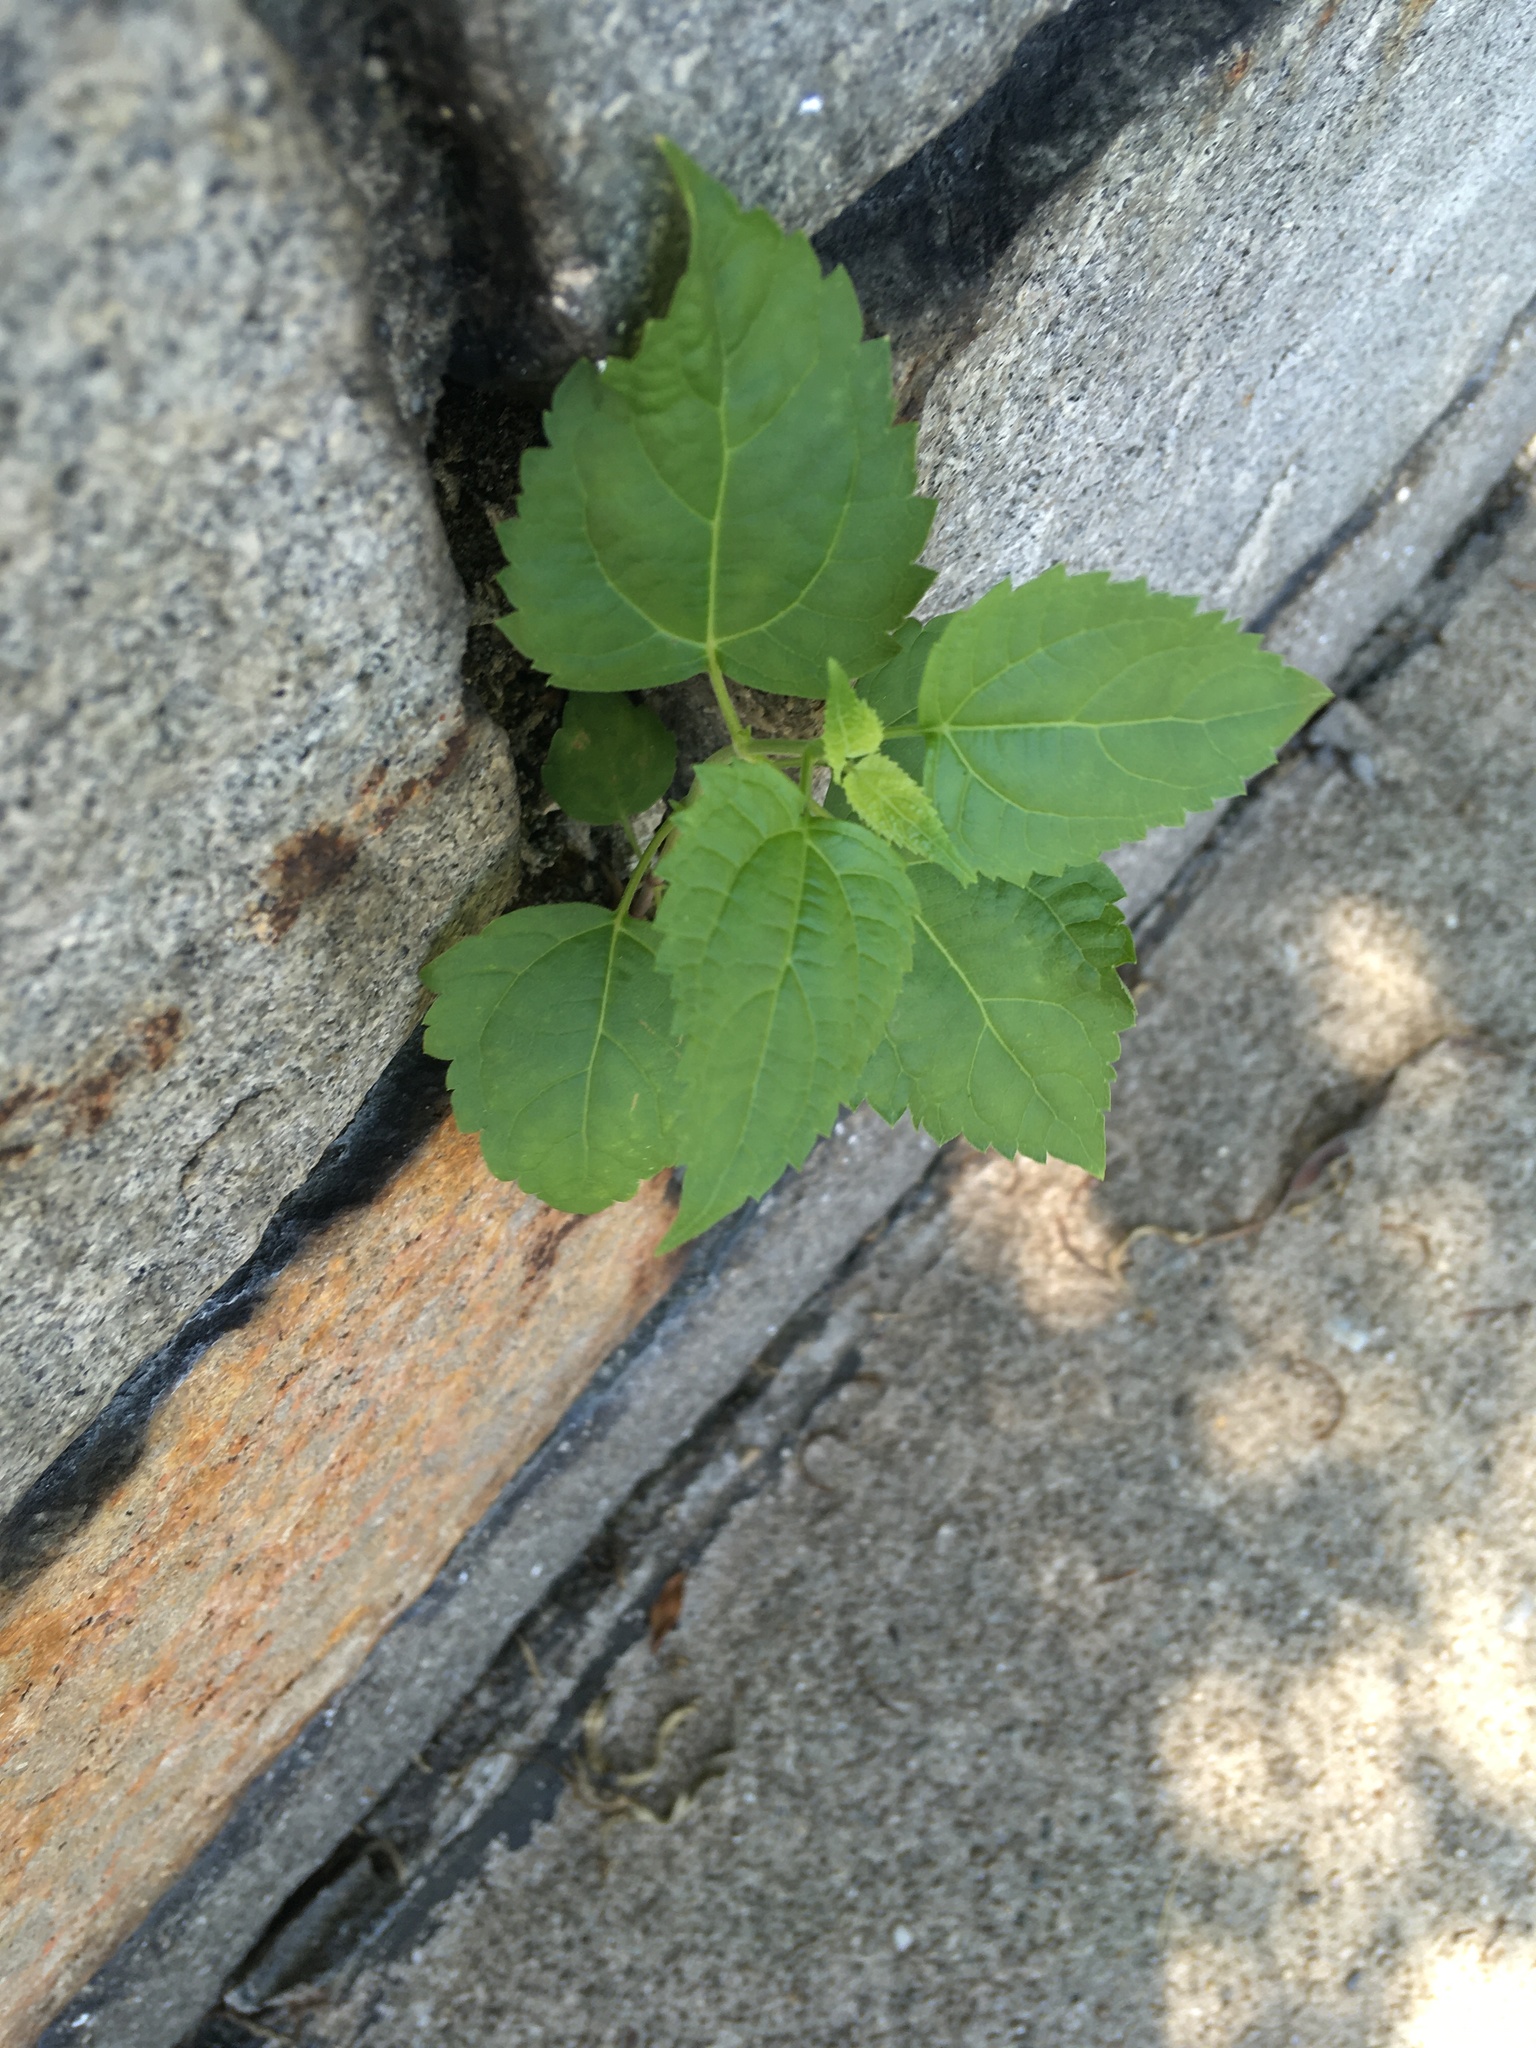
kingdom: Plantae
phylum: Tracheophyta
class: Magnoliopsida
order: Asterales
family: Asteraceae
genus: Ageratina
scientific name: Ageratina altissima
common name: White snakeroot
